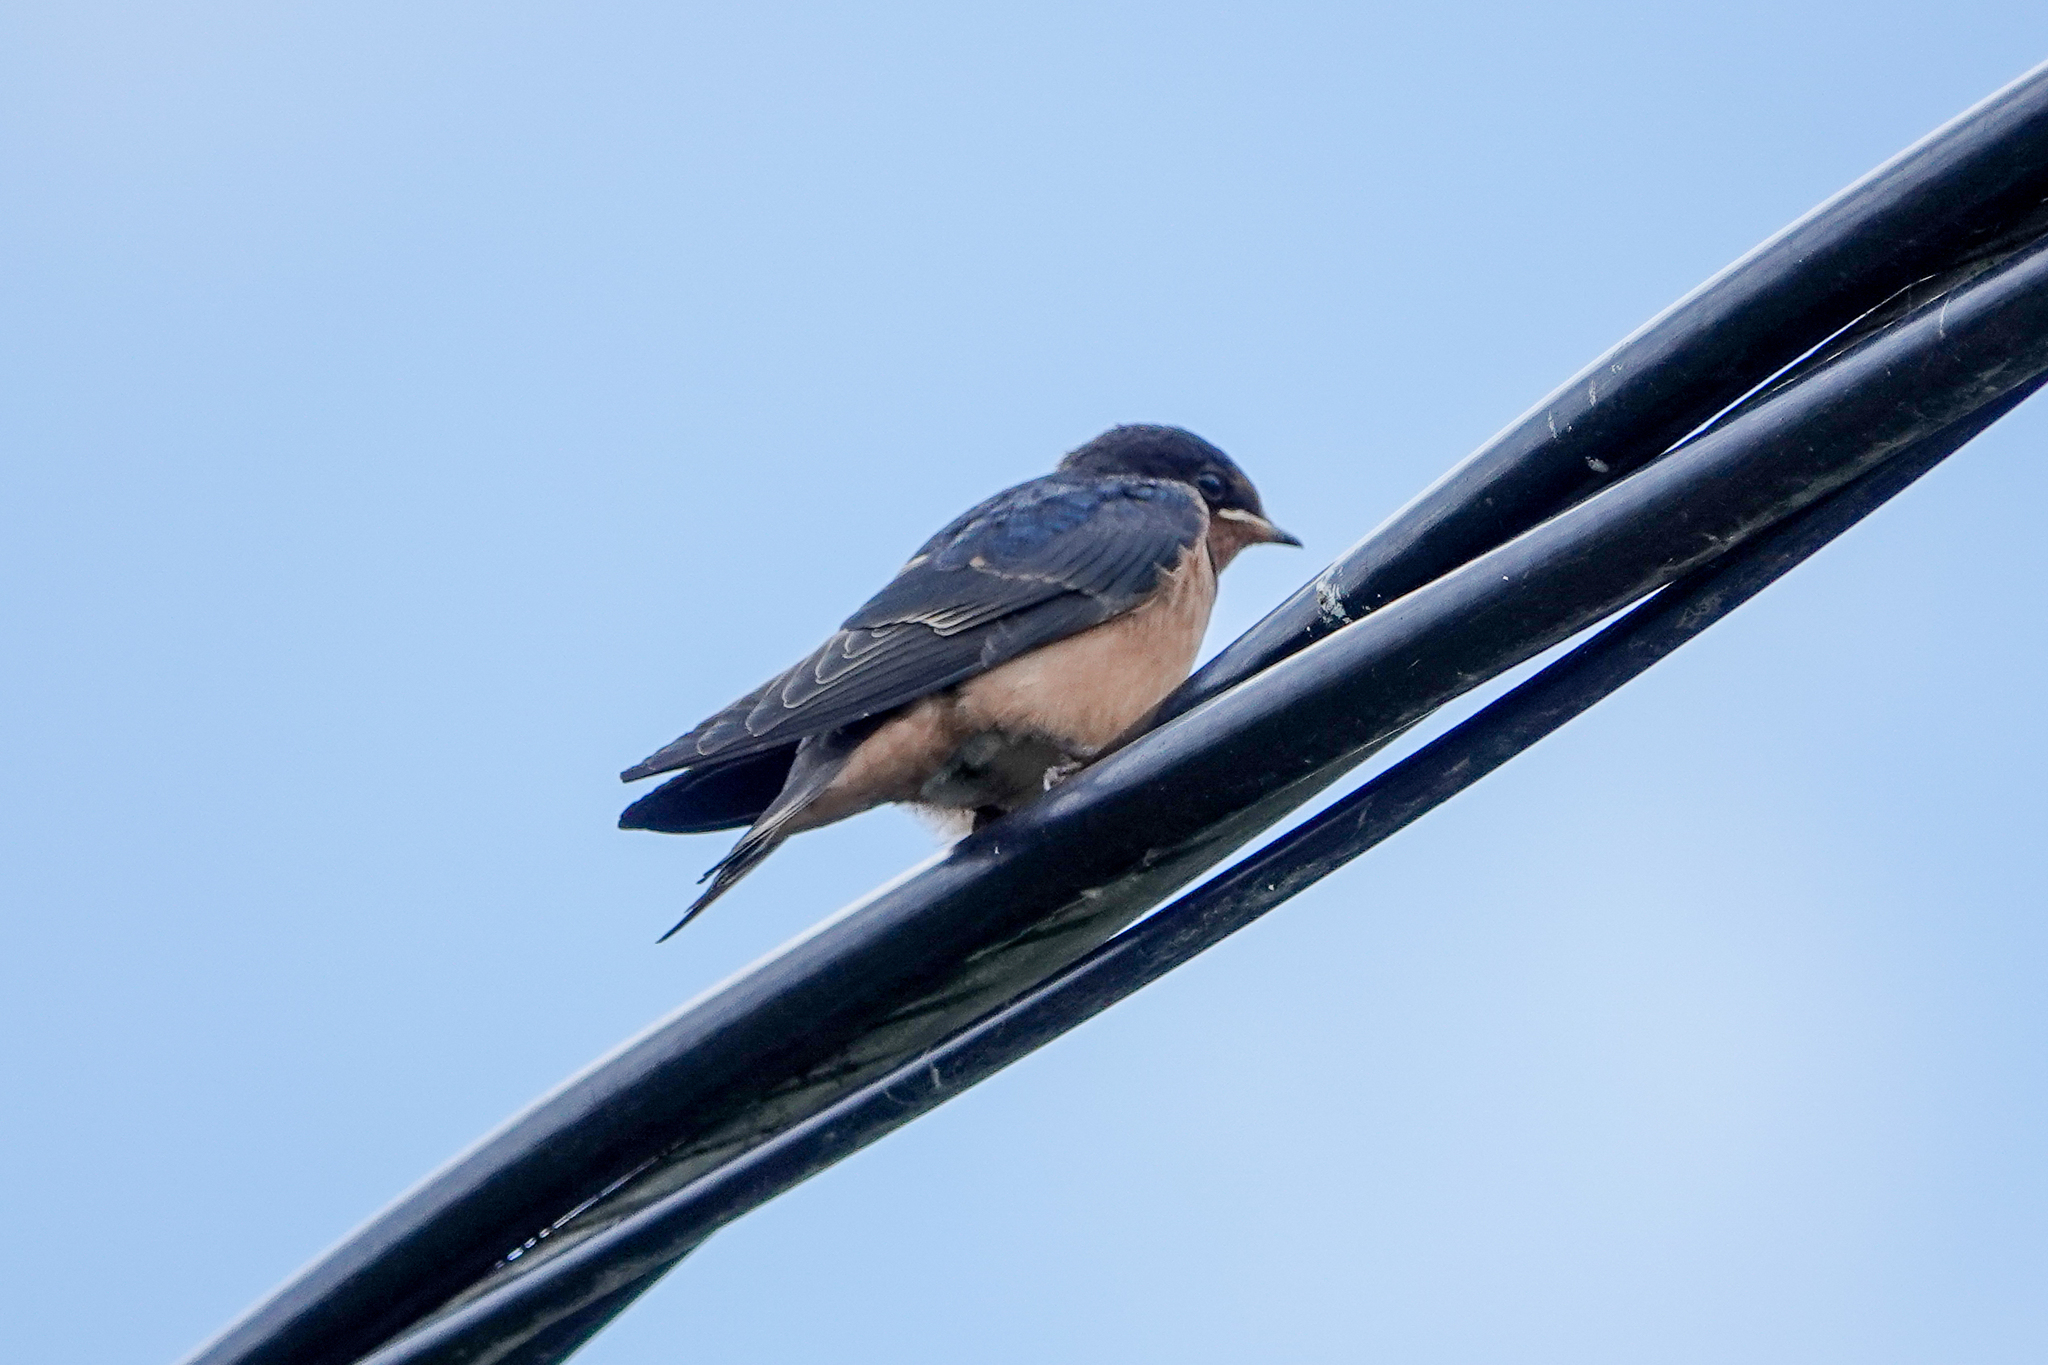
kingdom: Animalia
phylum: Chordata
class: Aves
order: Passeriformes
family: Hirundinidae
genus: Hirundo
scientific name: Hirundo rustica
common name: Barn swallow
